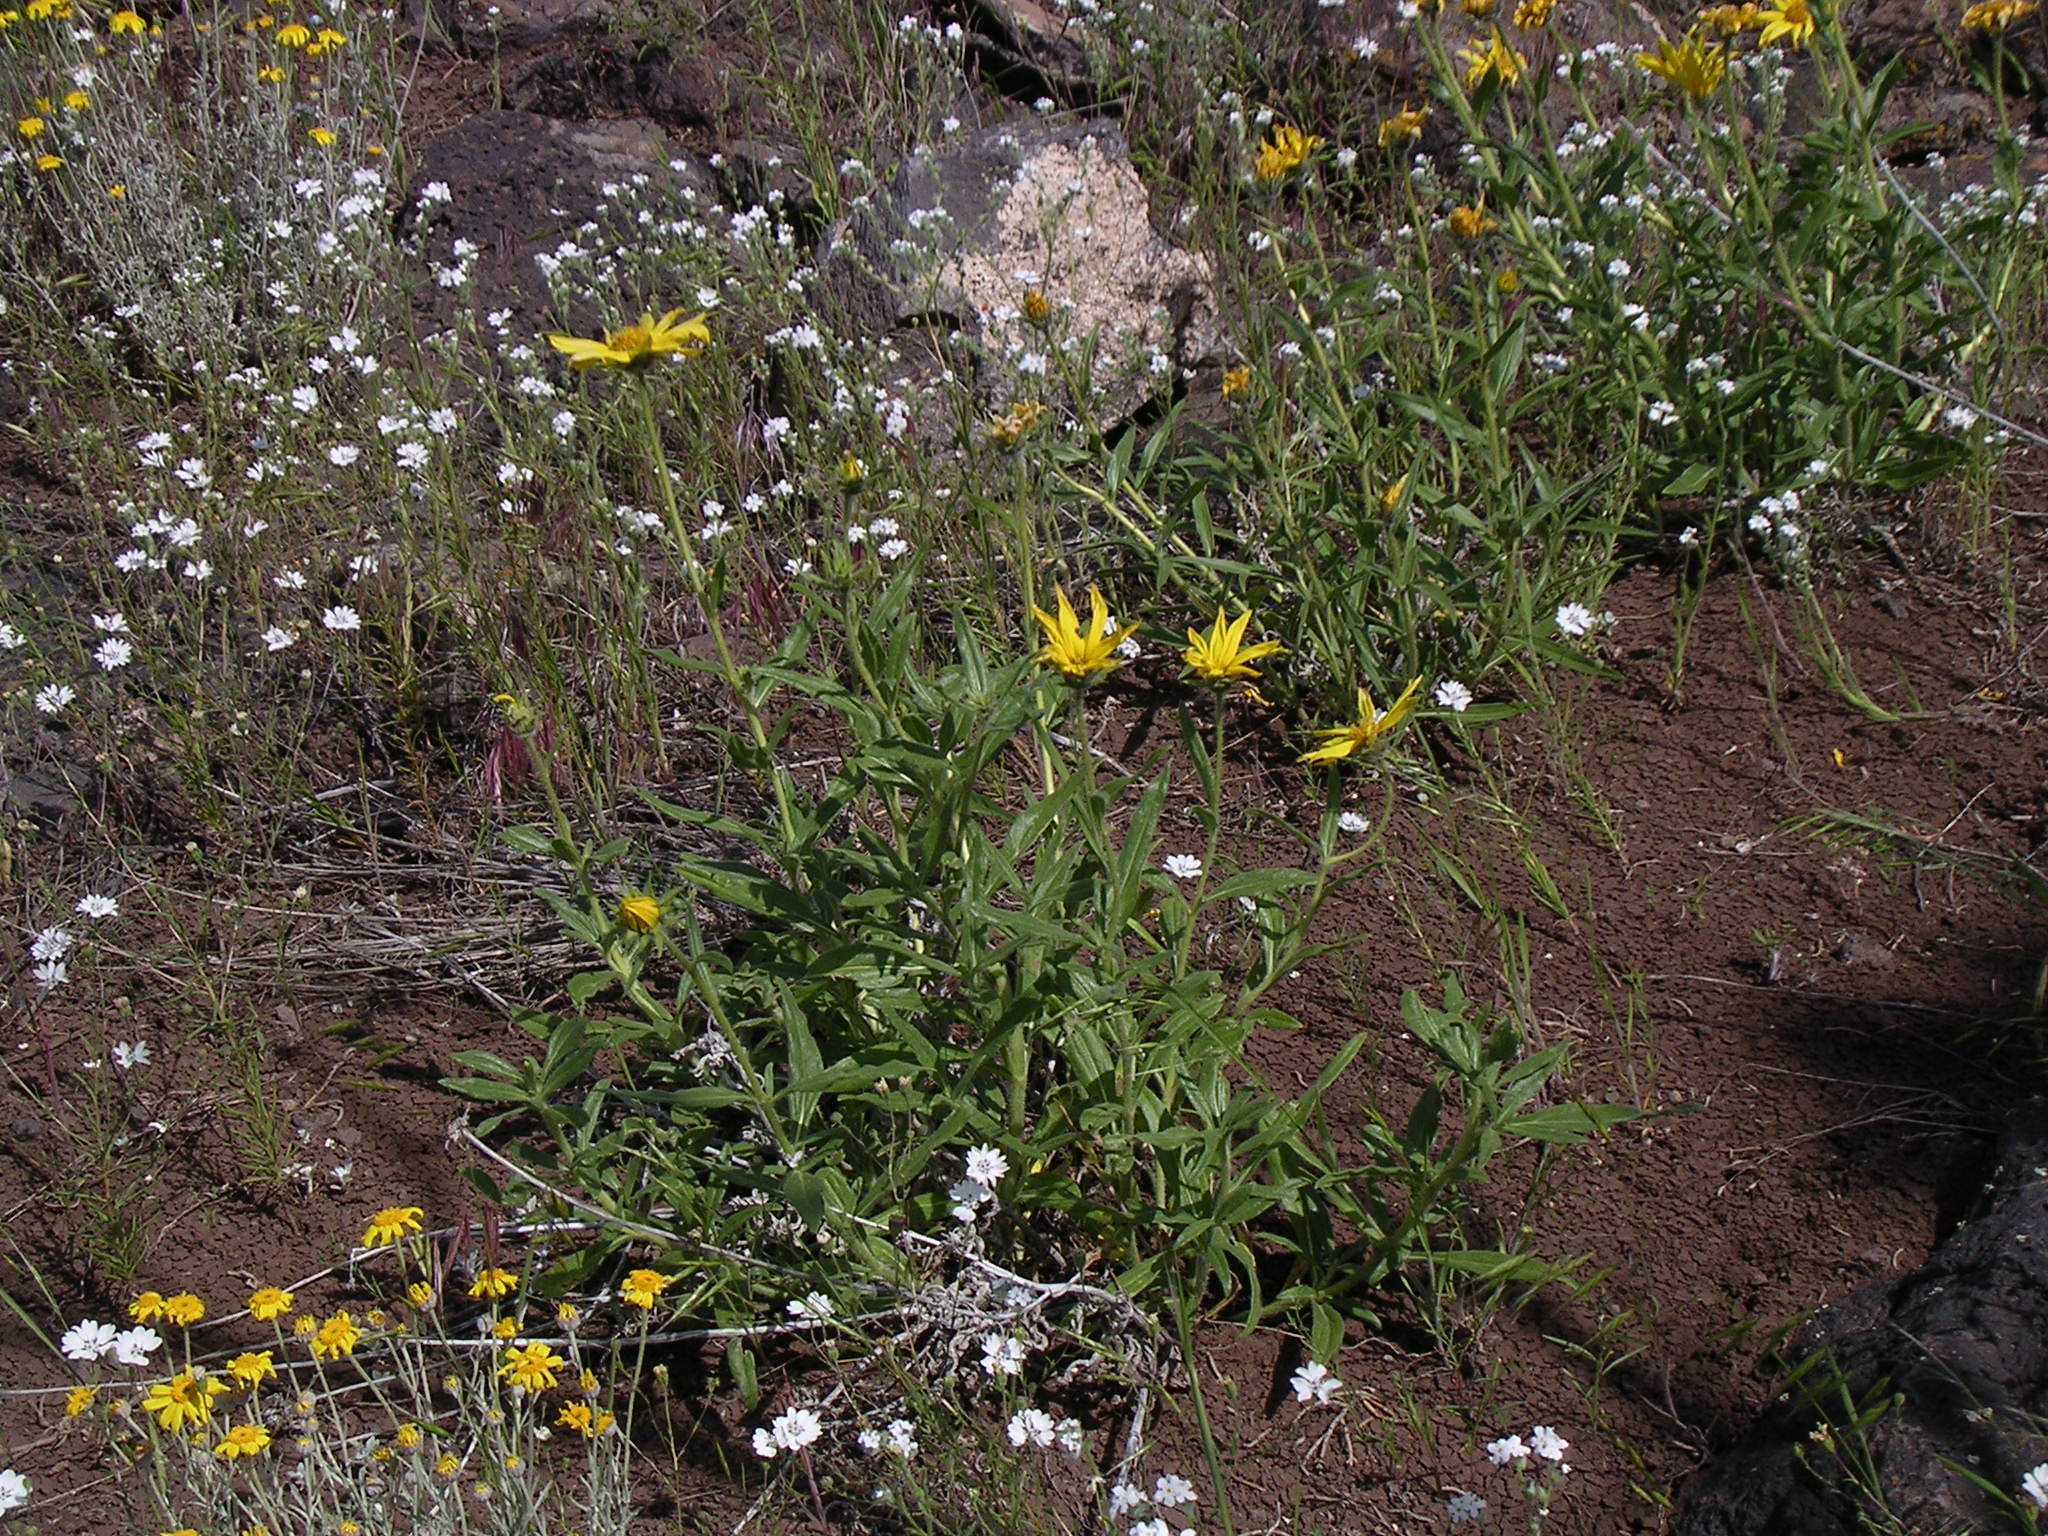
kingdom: Plantae
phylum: Tracheophyta
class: Magnoliopsida
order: Asterales
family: Asteraceae
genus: Helianthus
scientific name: Helianthus cusickii
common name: Cusick's sunflower
